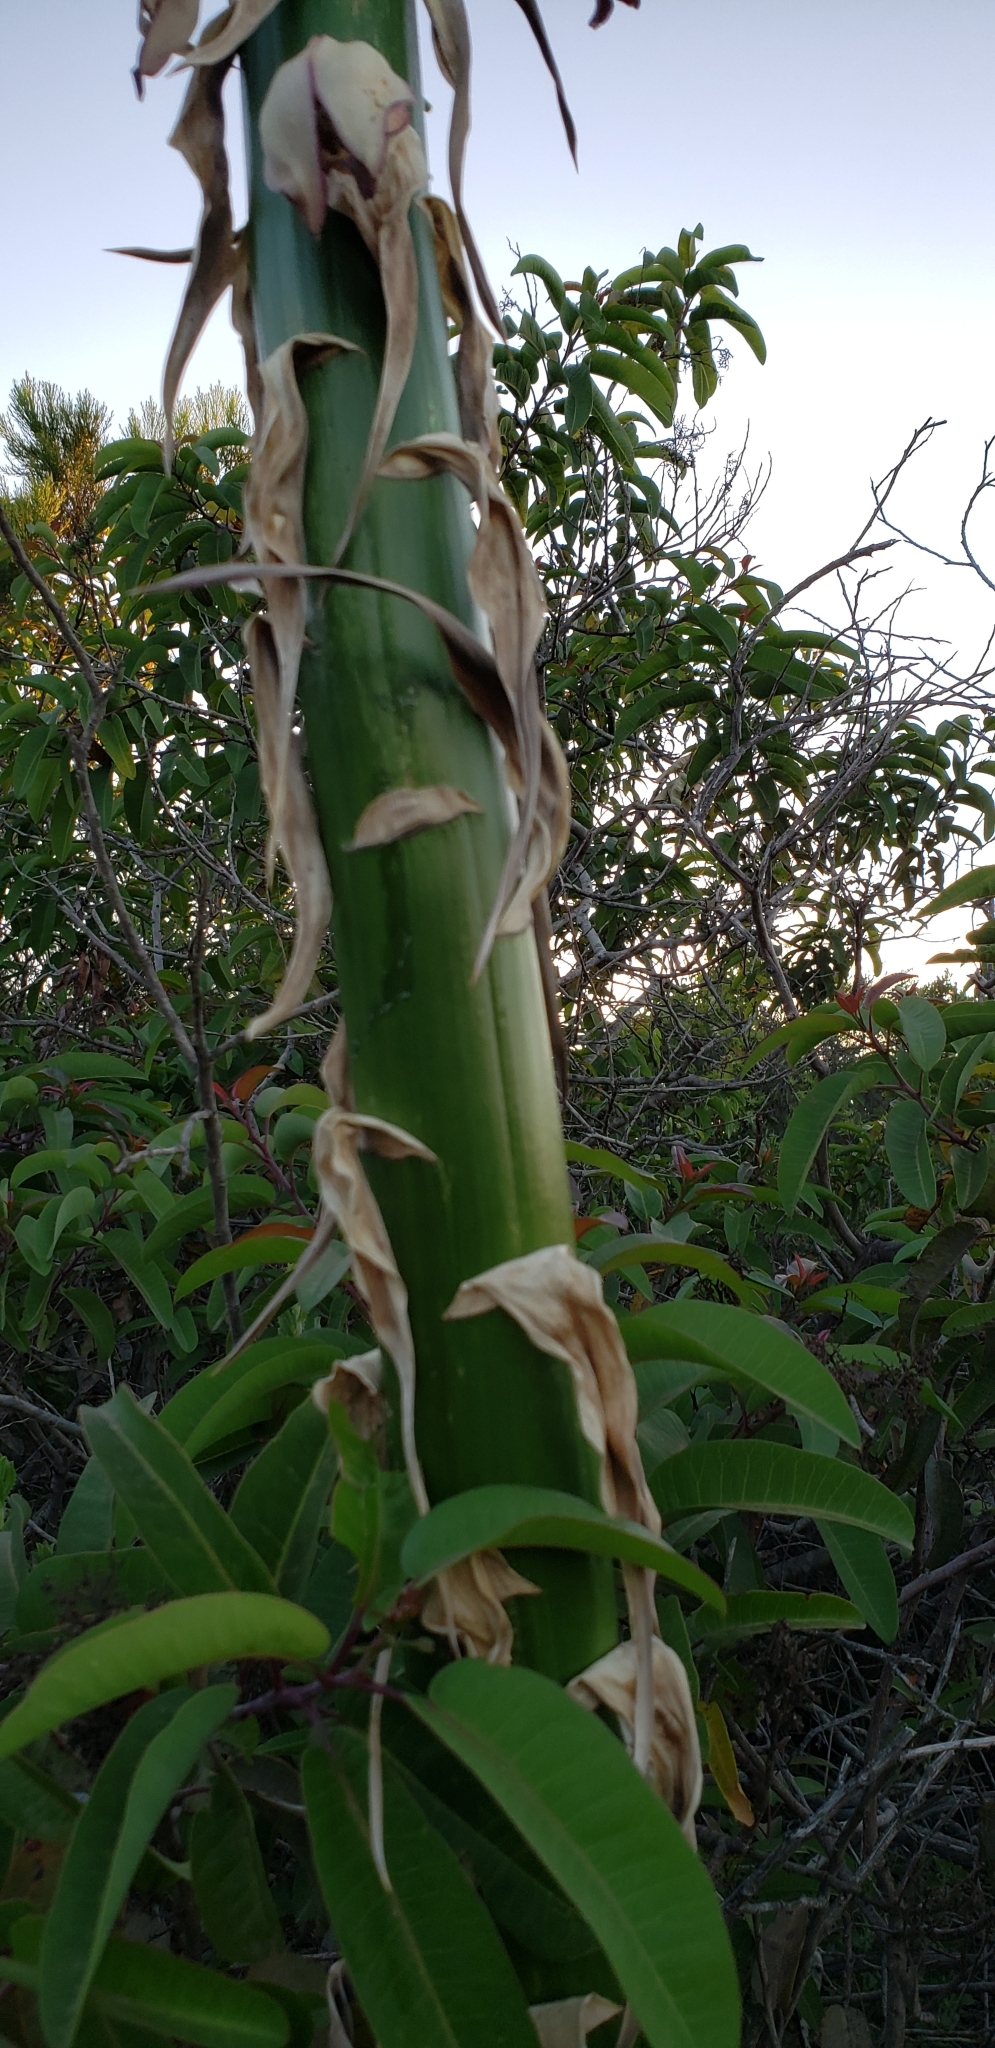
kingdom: Plantae
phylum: Tracheophyta
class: Liliopsida
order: Asparagales
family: Asparagaceae
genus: Hesperoyucca
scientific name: Hesperoyucca whipplei
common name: Our lord's-candle
